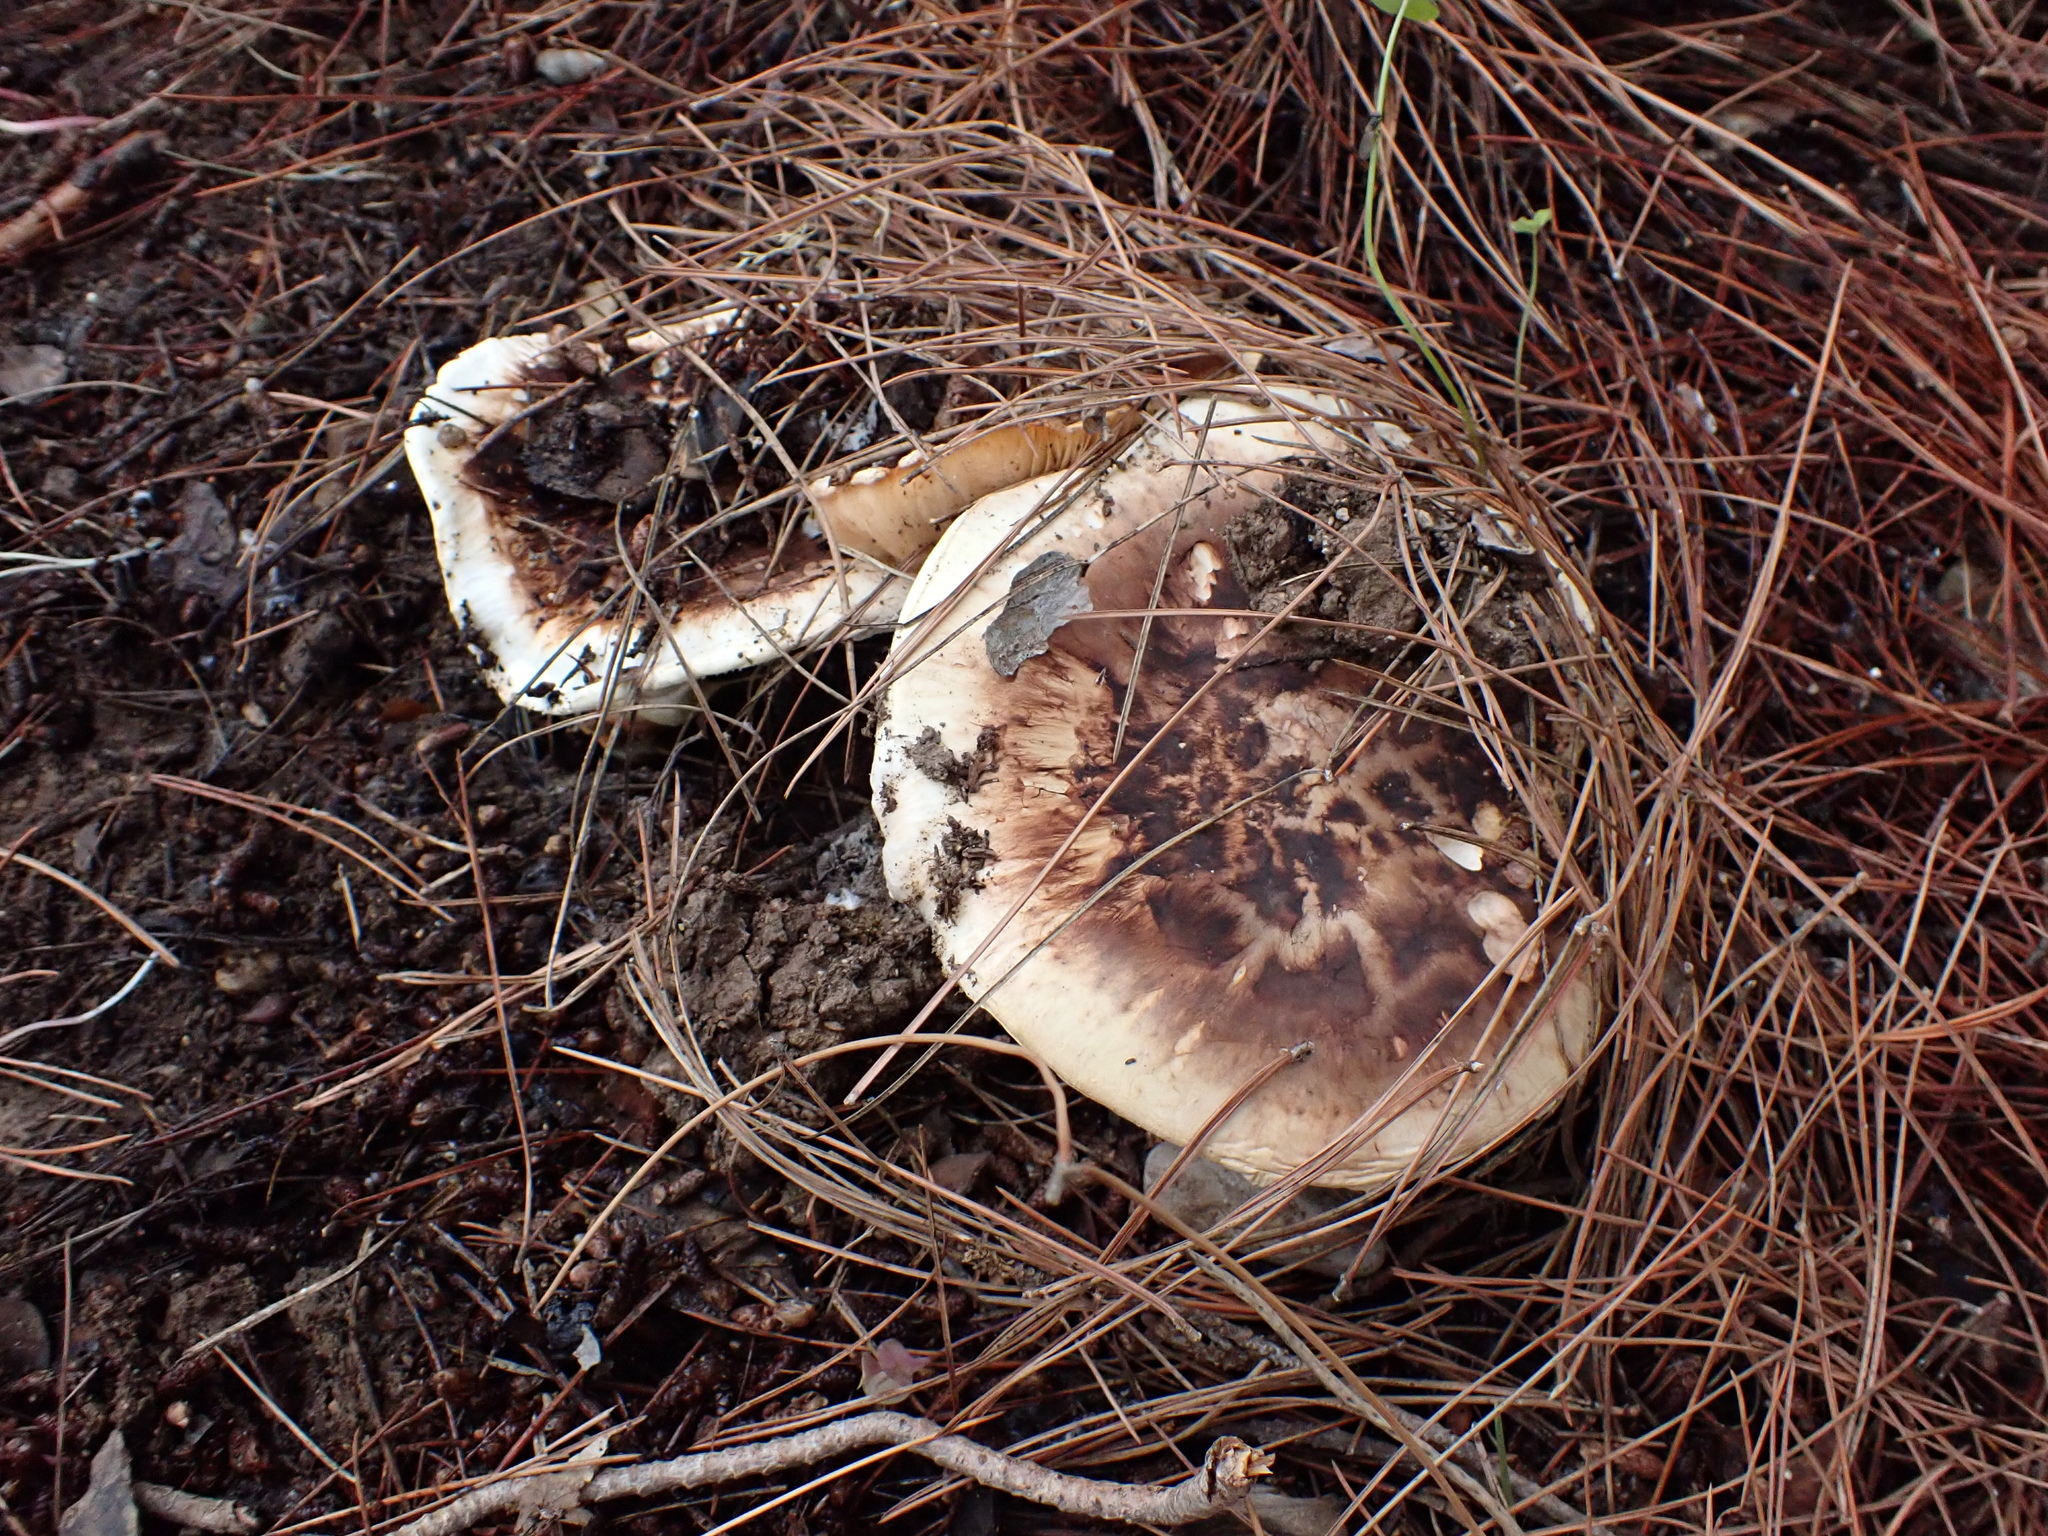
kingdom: Fungi
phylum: Basidiomycota
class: Agaricomycetes
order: Agaricales
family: Tricholomataceae
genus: Tricholoma
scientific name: Tricholoma caligatum
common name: True booted knight
